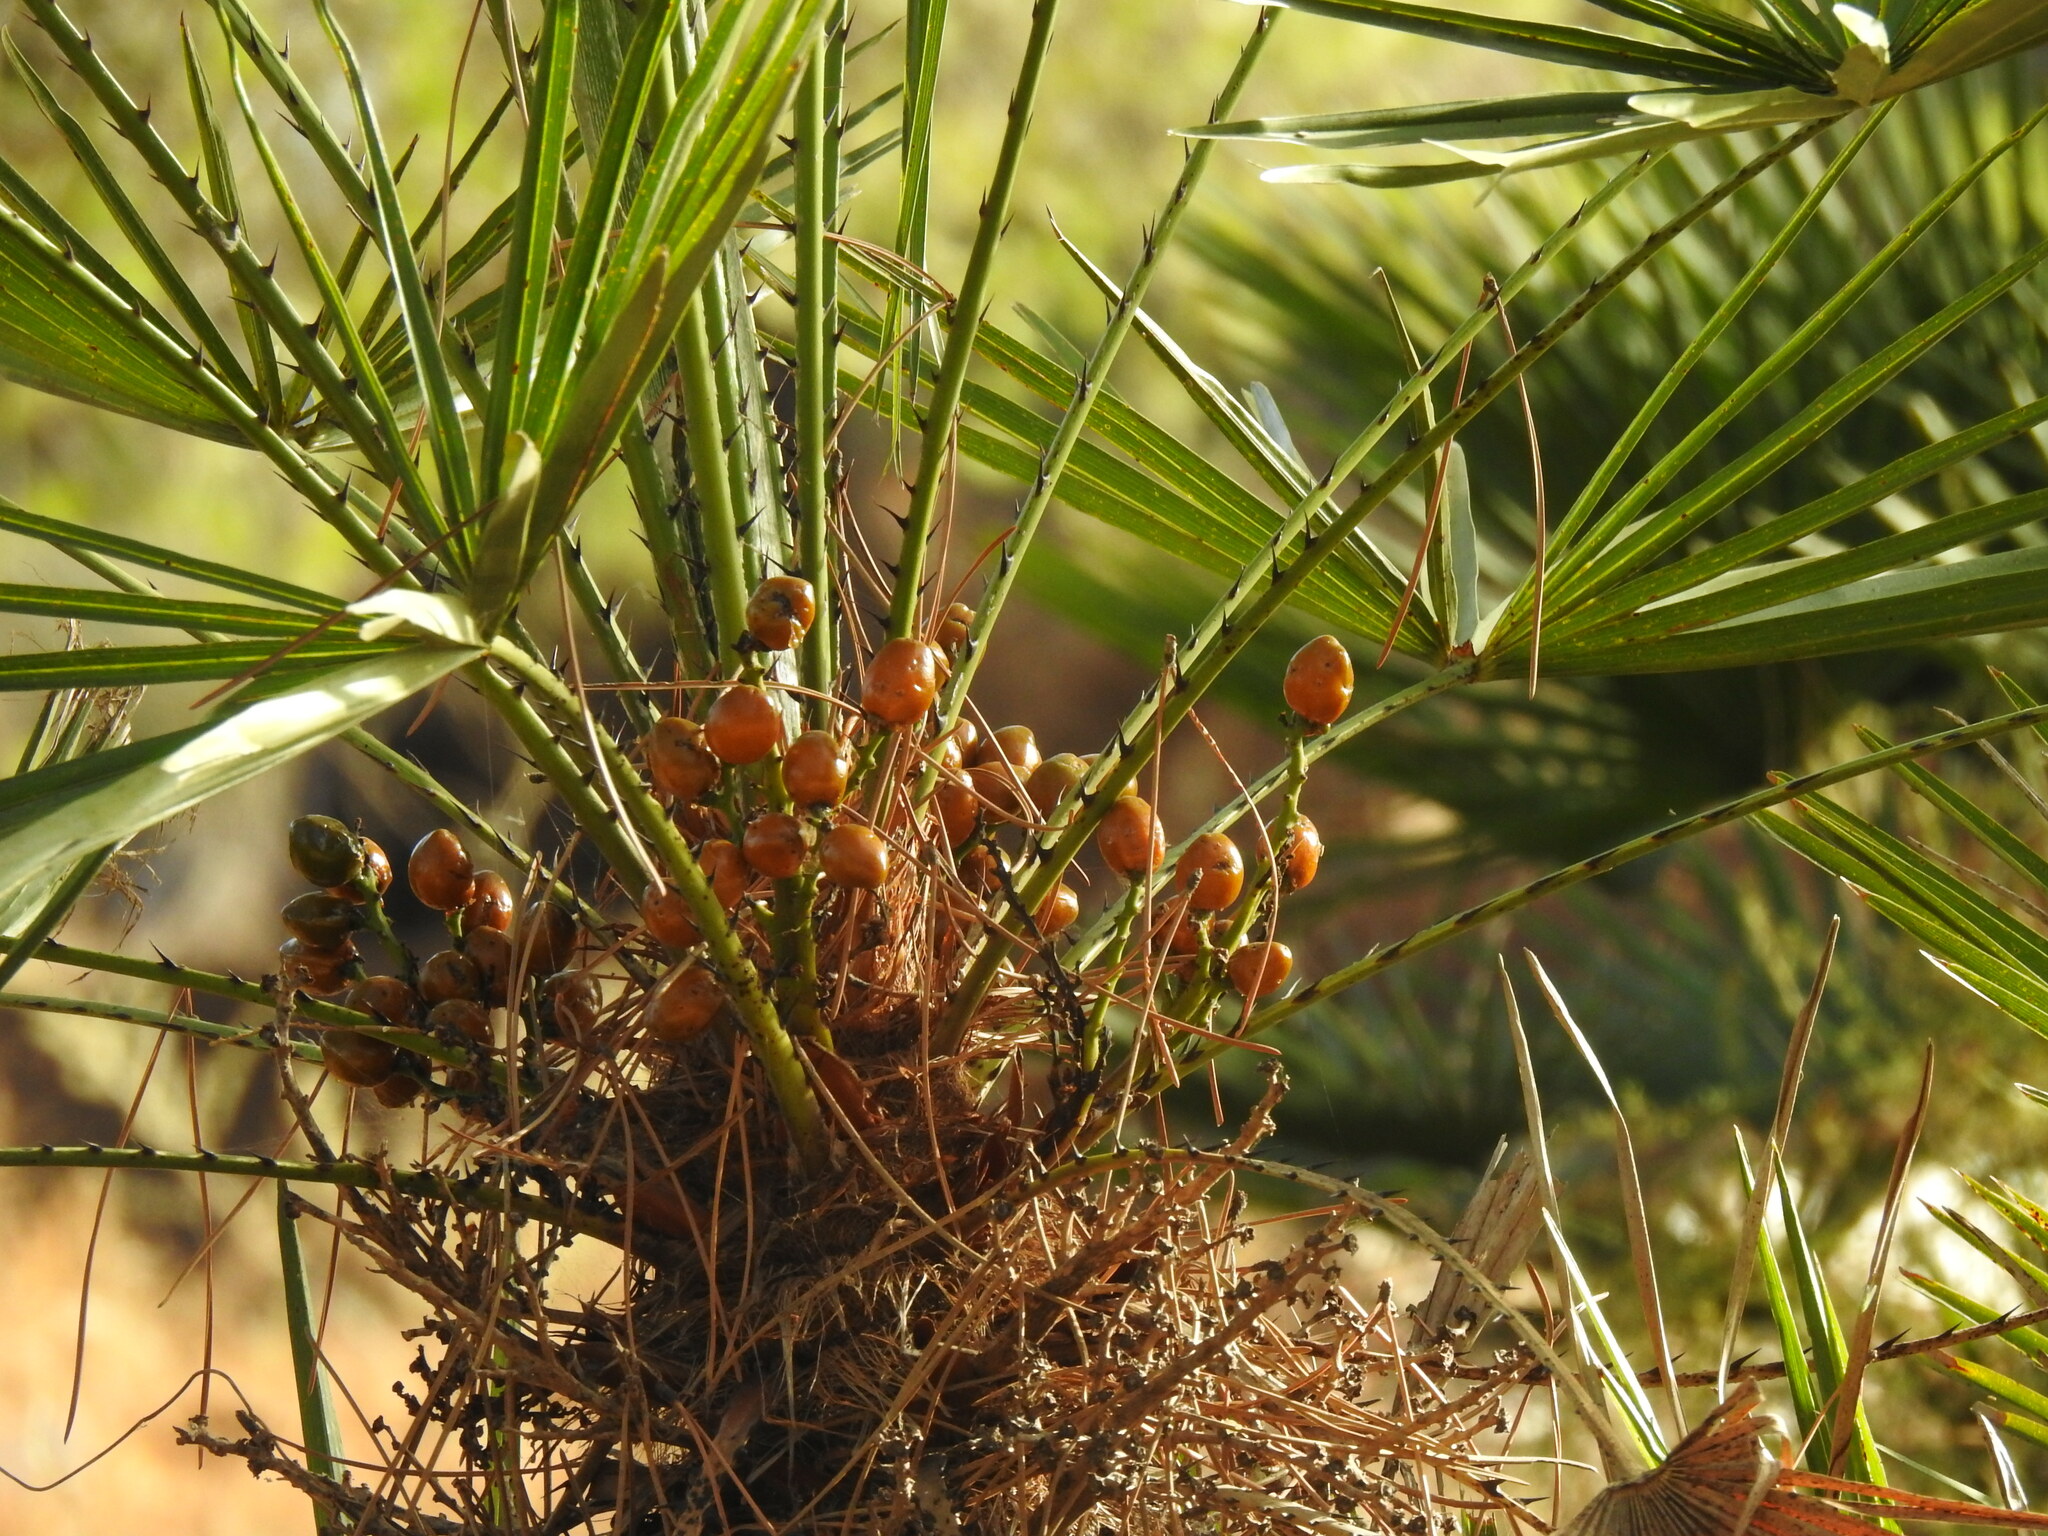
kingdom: Plantae
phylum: Tracheophyta
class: Liliopsida
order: Arecales
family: Arecaceae
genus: Chamaerops
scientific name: Chamaerops humilis
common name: Dwarf fan palm
